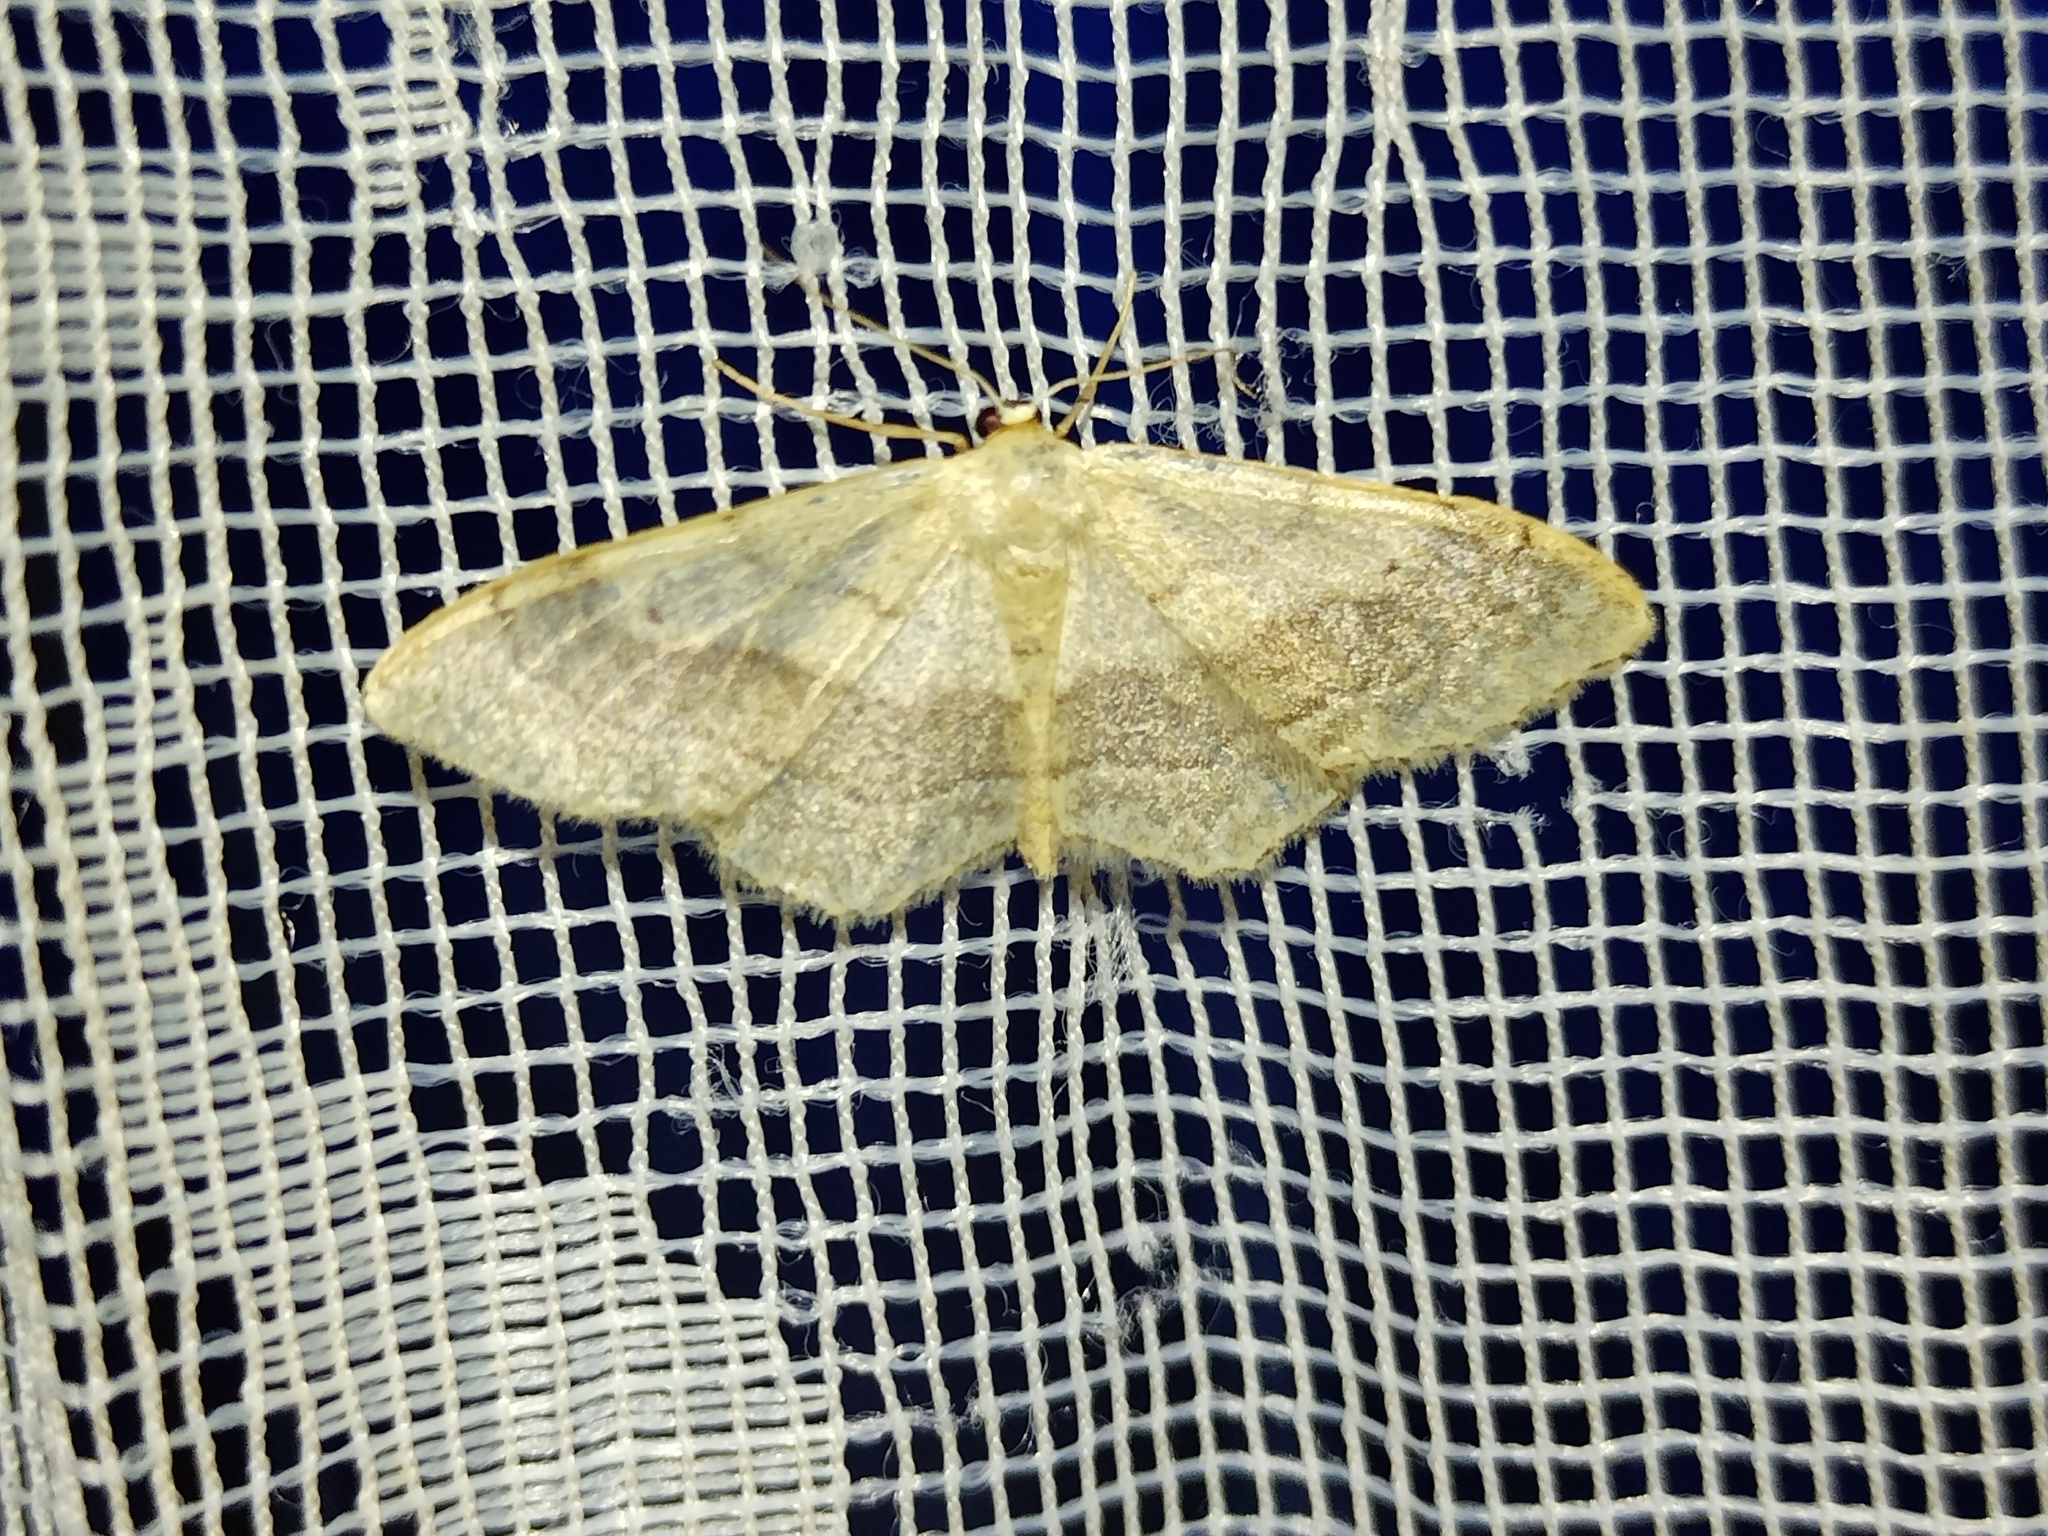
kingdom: Animalia
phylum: Arthropoda
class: Insecta
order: Lepidoptera
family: Geometridae
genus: Idaea
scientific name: Idaea aversata
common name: Riband wave
